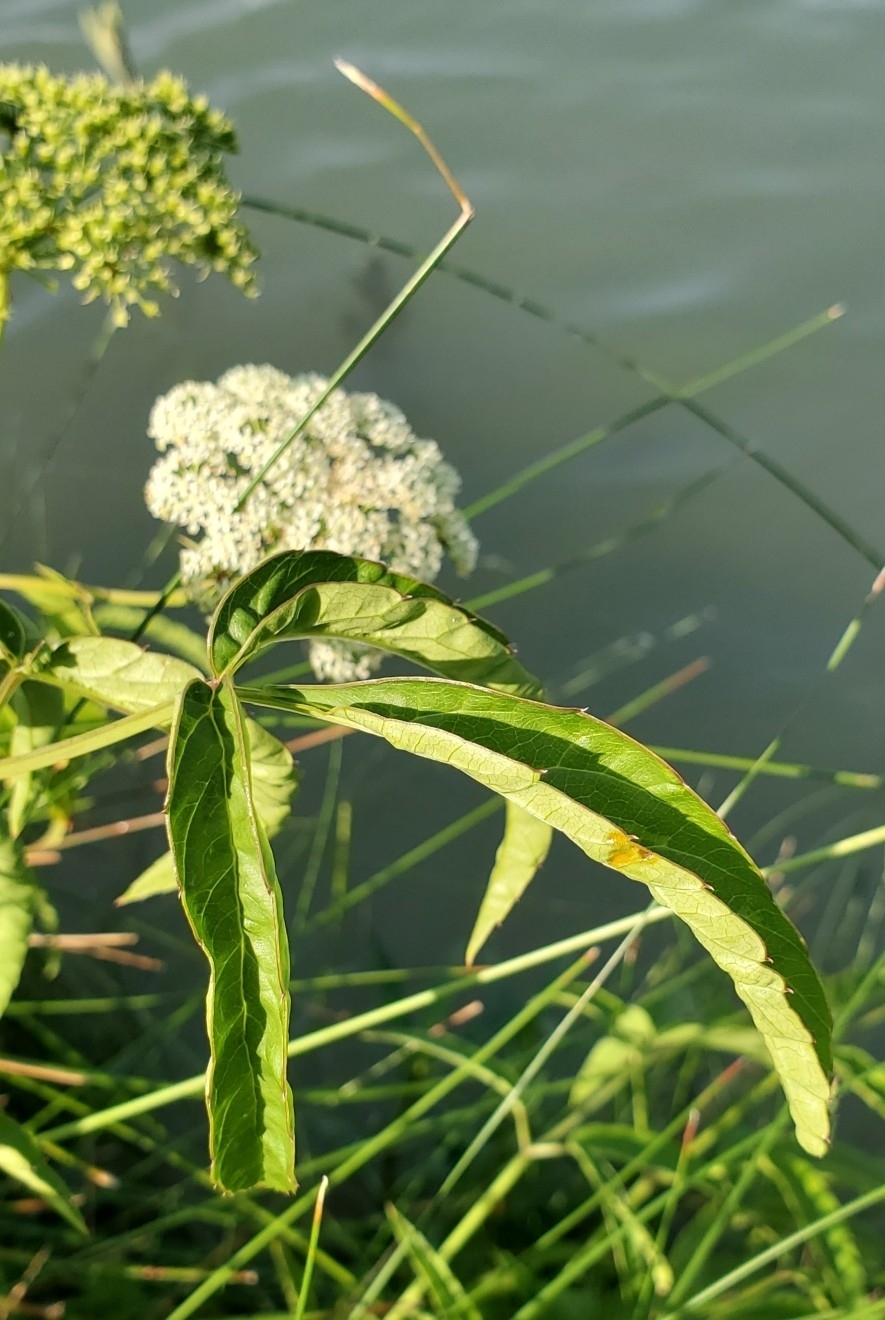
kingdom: Plantae
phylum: Tracheophyta
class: Magnoliopsida
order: Apiales
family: Apiaceae
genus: Cicuta
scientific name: Cicuta maculata
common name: Spotted cowbane
